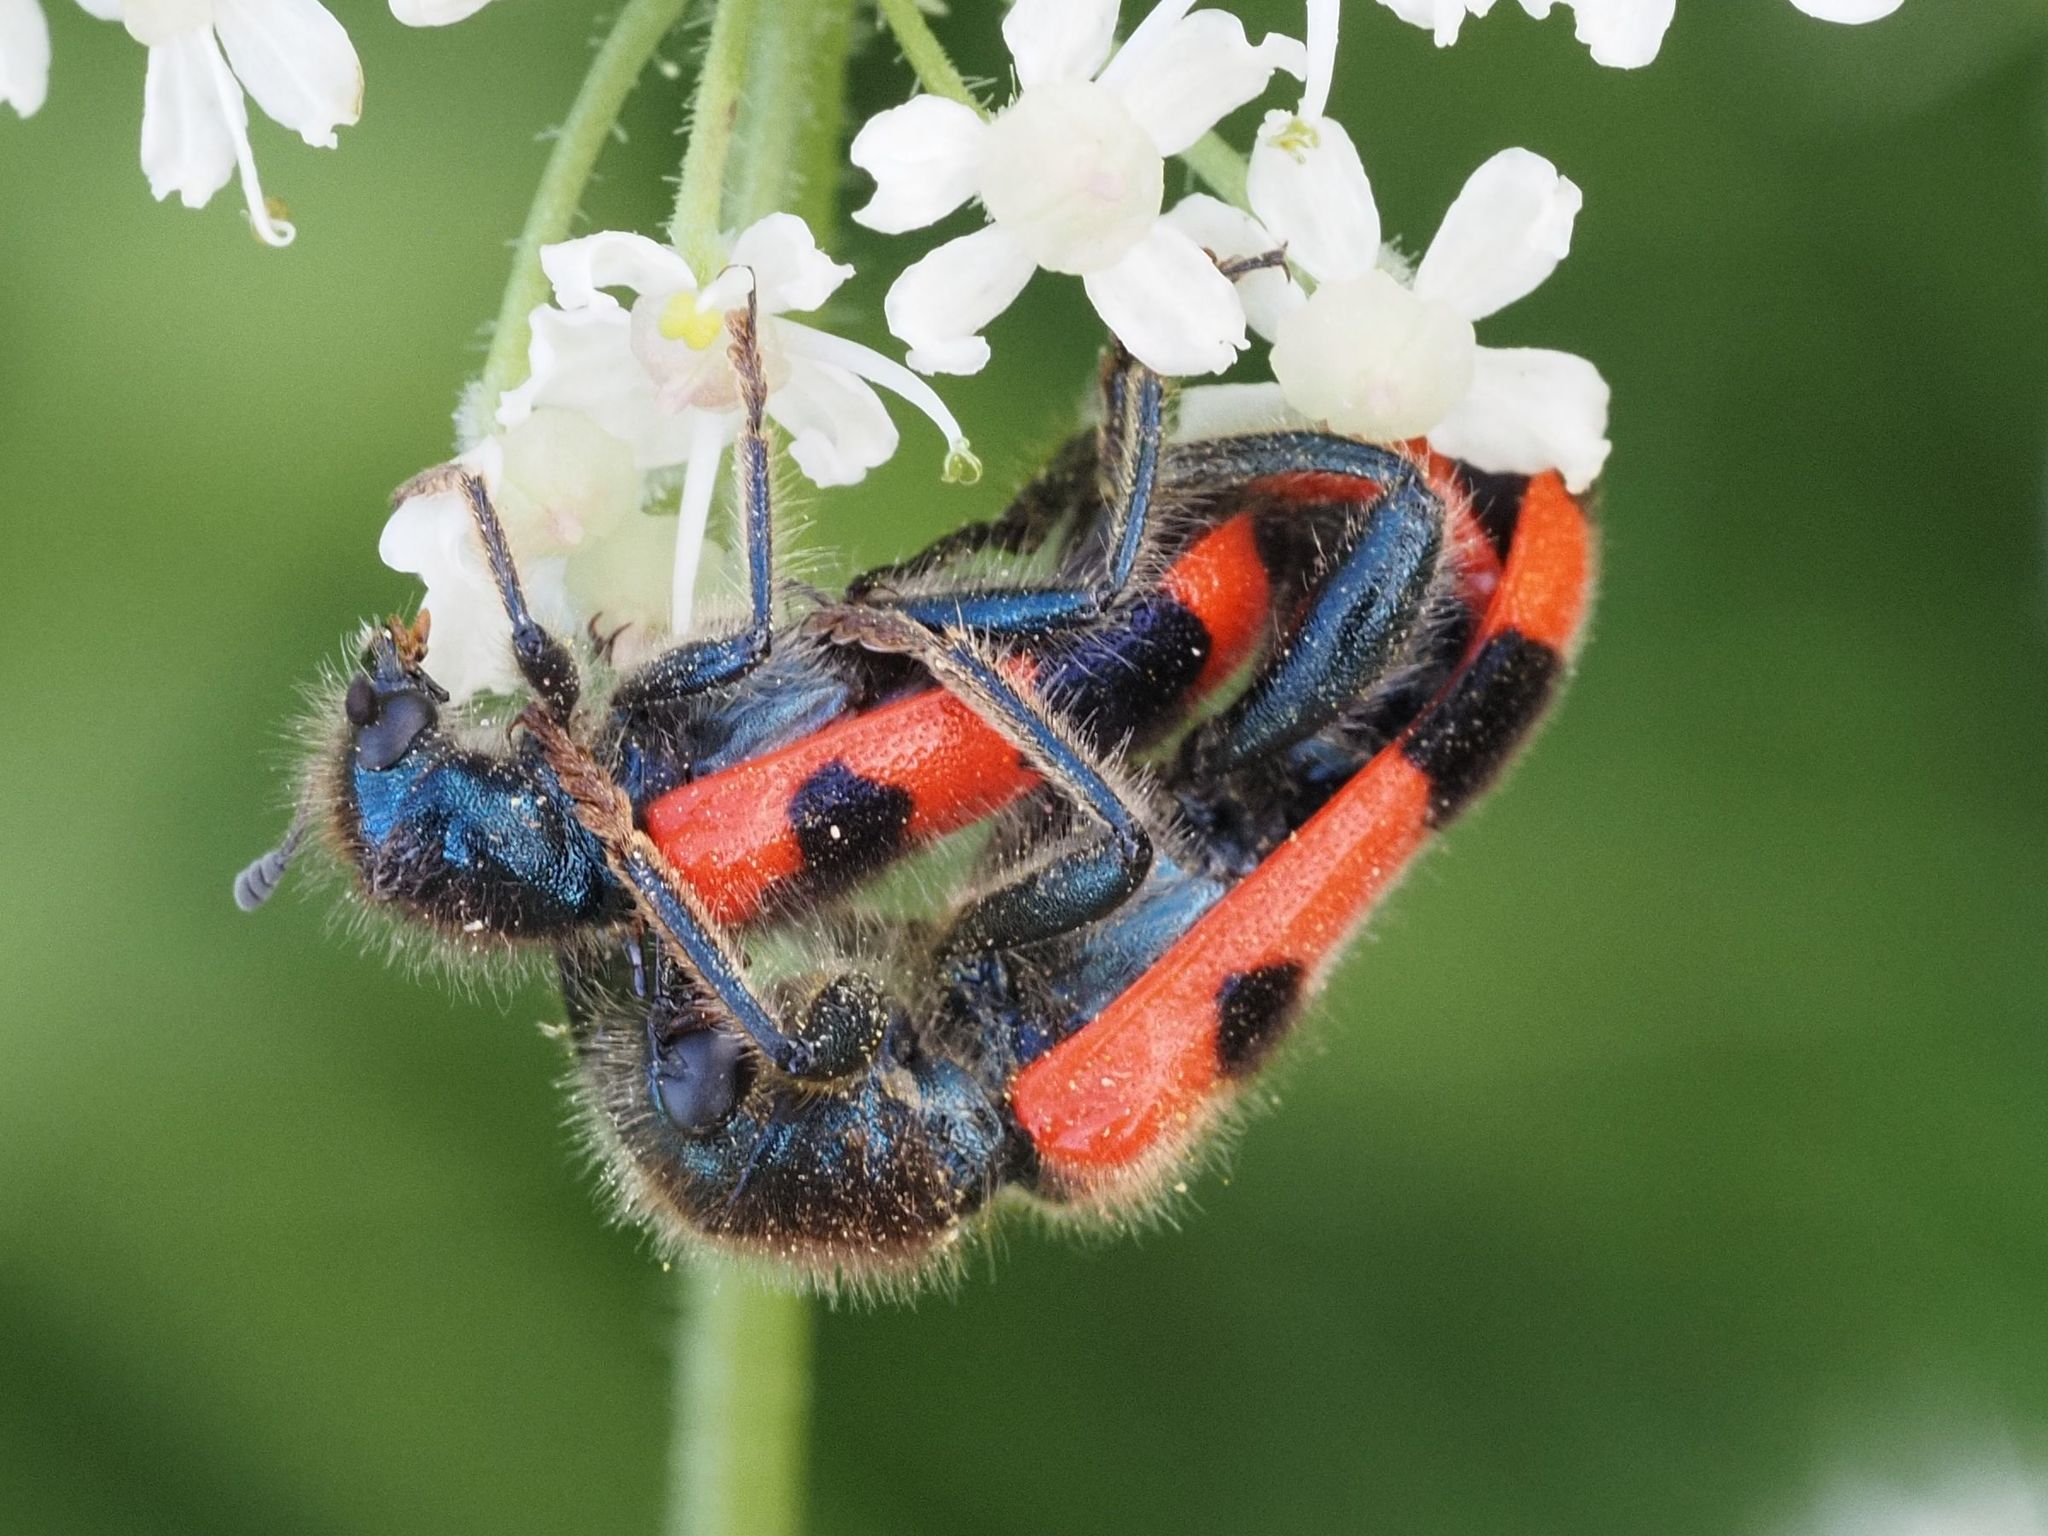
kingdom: Animalia
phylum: Arthropoda
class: Insecta
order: Coleoptera
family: Cleridae
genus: Trichodes
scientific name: Trichodes apiarius
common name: Bee-eating beetle
